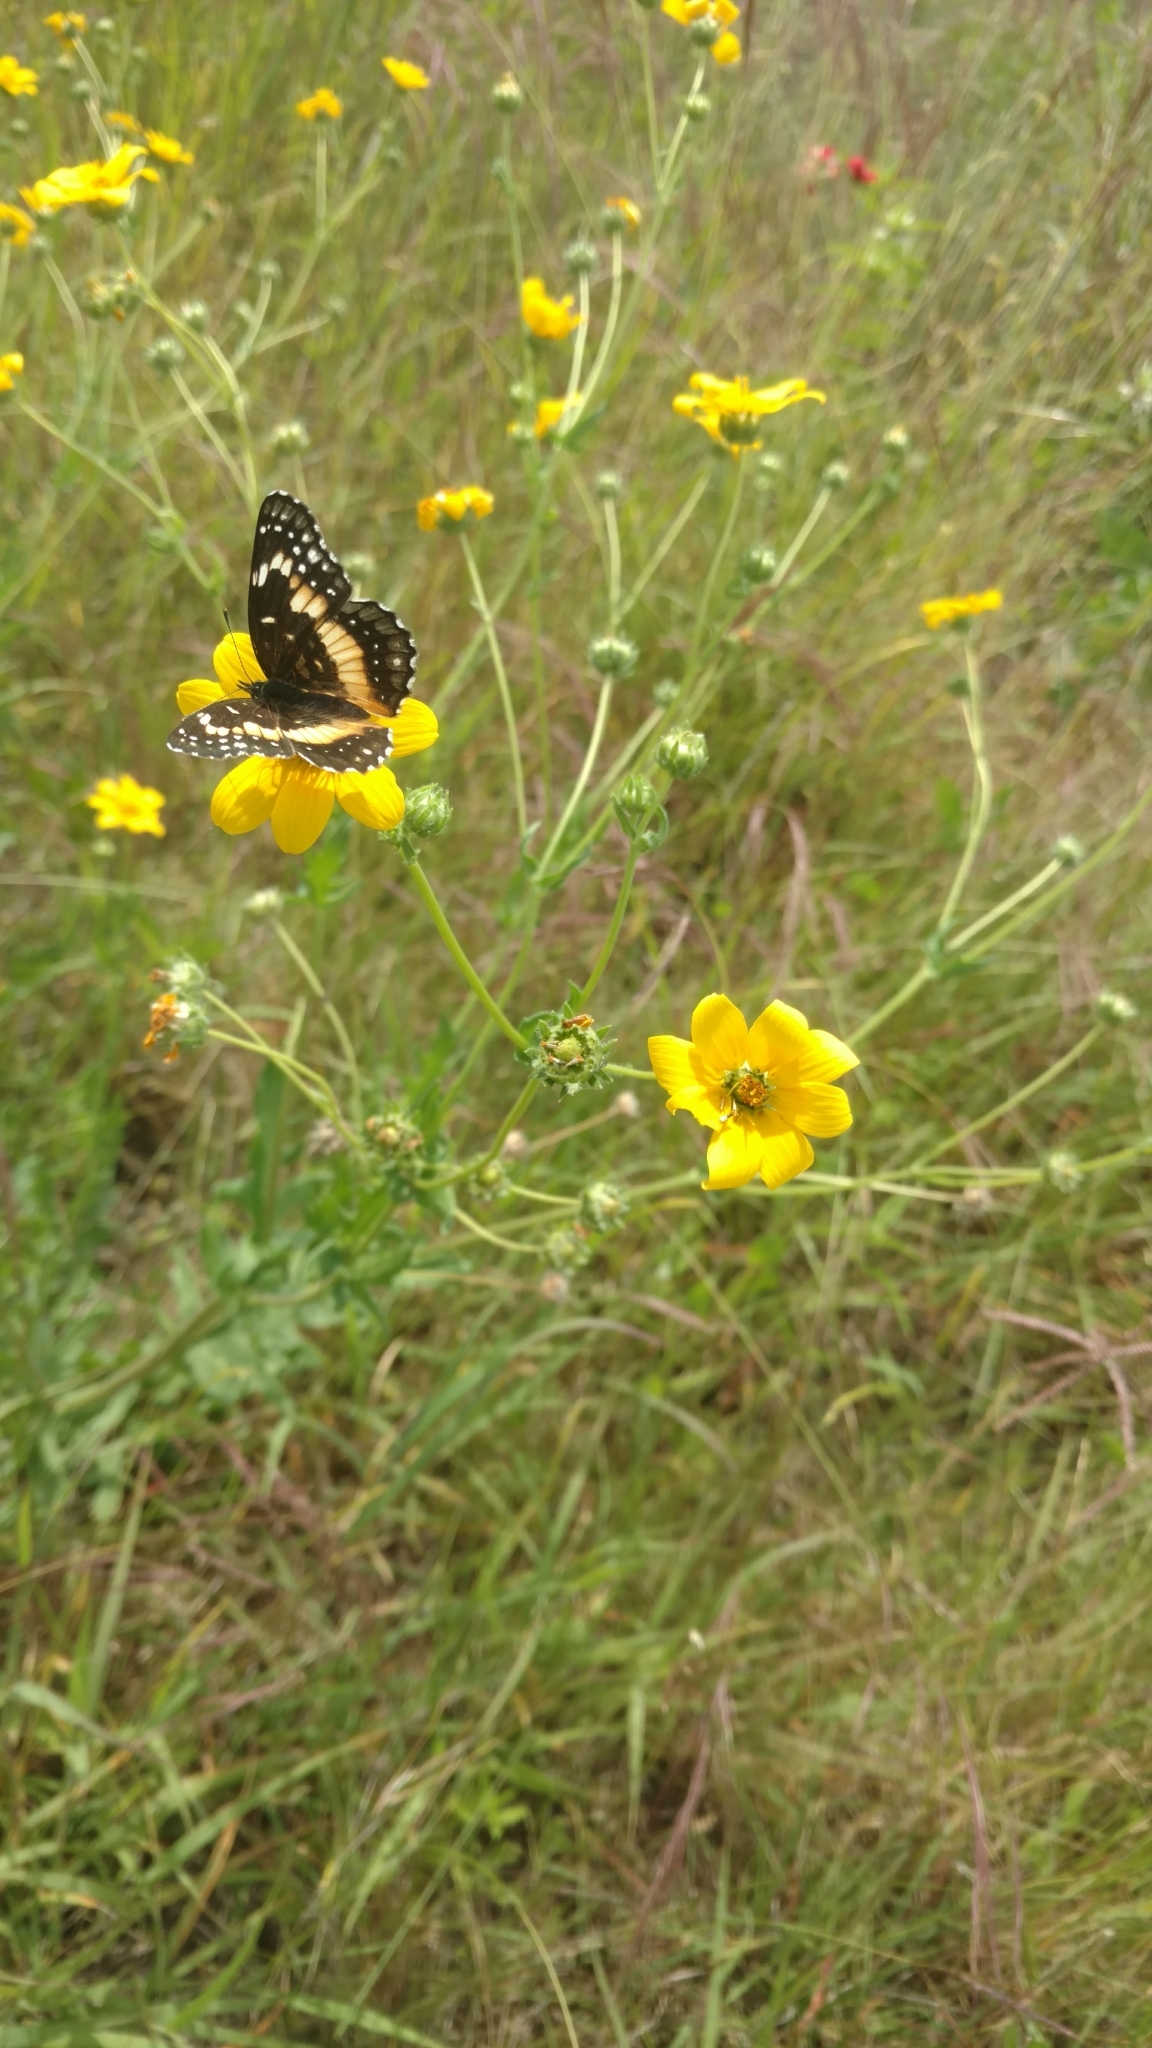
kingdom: Animalia
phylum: Arthropoda
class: Insecta
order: Lepidoptera
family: Nymphalidae
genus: Chlosyne
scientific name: Chlosyne lacinia
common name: Bordered patch
